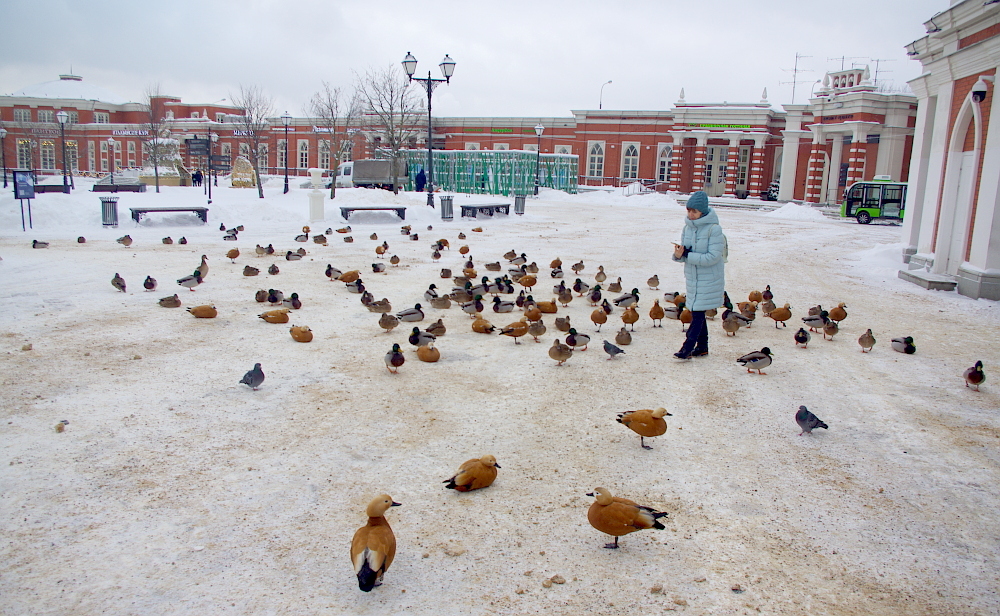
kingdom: Animalia
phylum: Chordata
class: Aves
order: Anseriformes
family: Anatidae
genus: Anas
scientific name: Anas platyrhynchos
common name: Mallard
